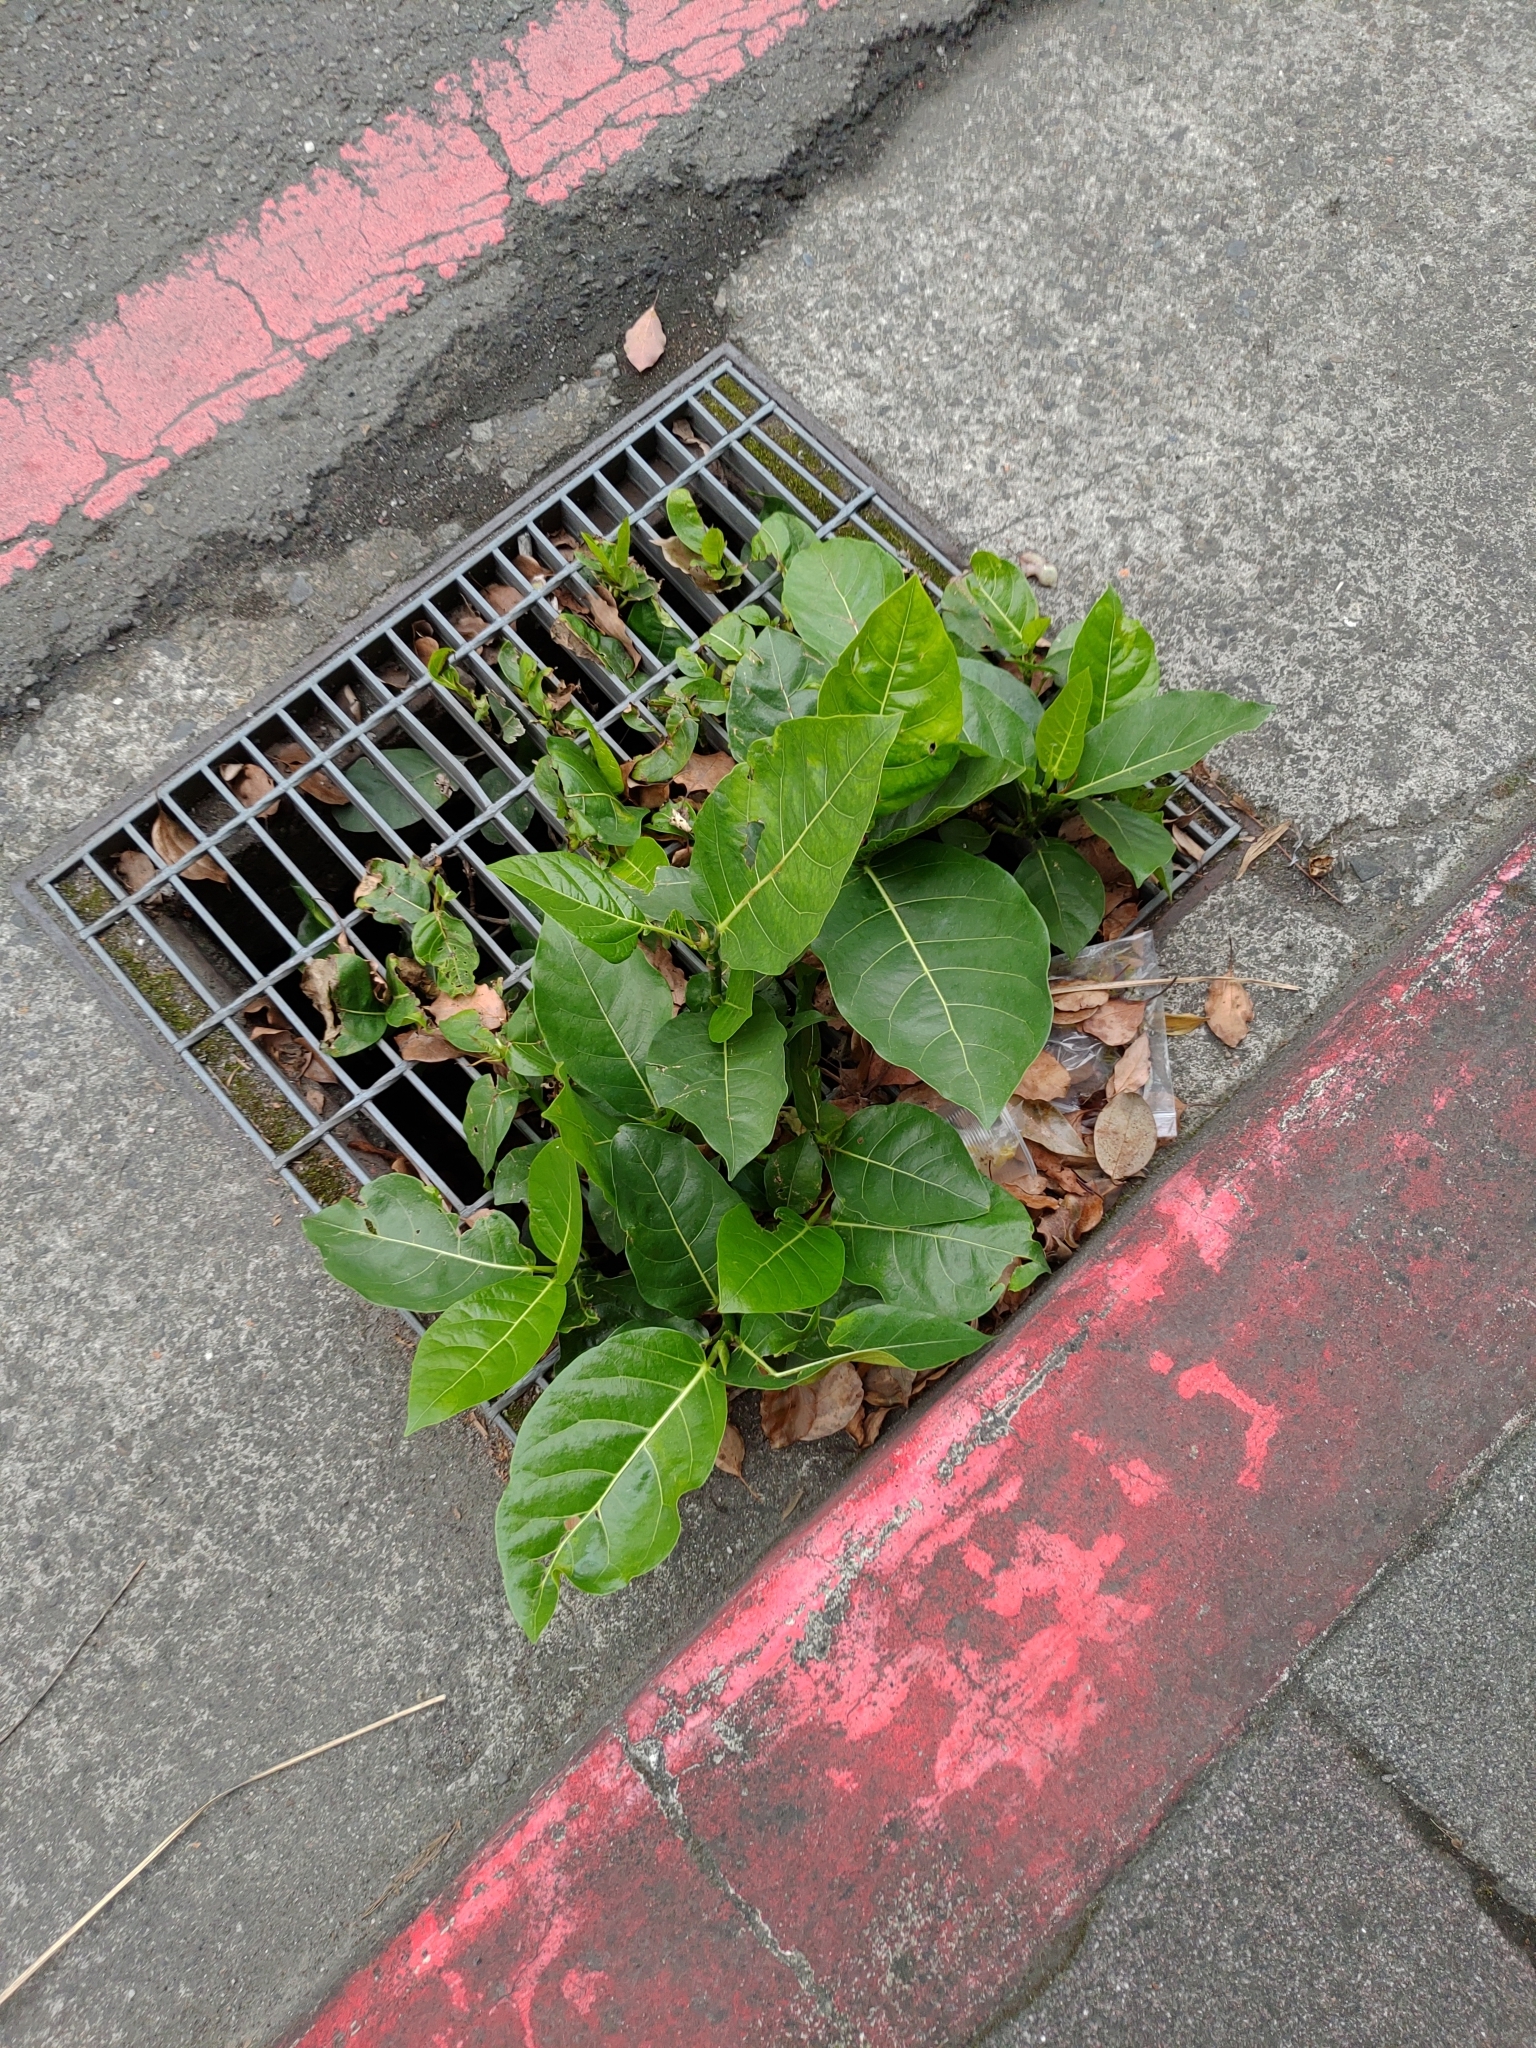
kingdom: Plantae
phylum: Tracheophyta
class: Magnoliopsida
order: Rosales
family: Moraceae
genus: Ficus
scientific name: Ficus septica
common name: Septic fig
